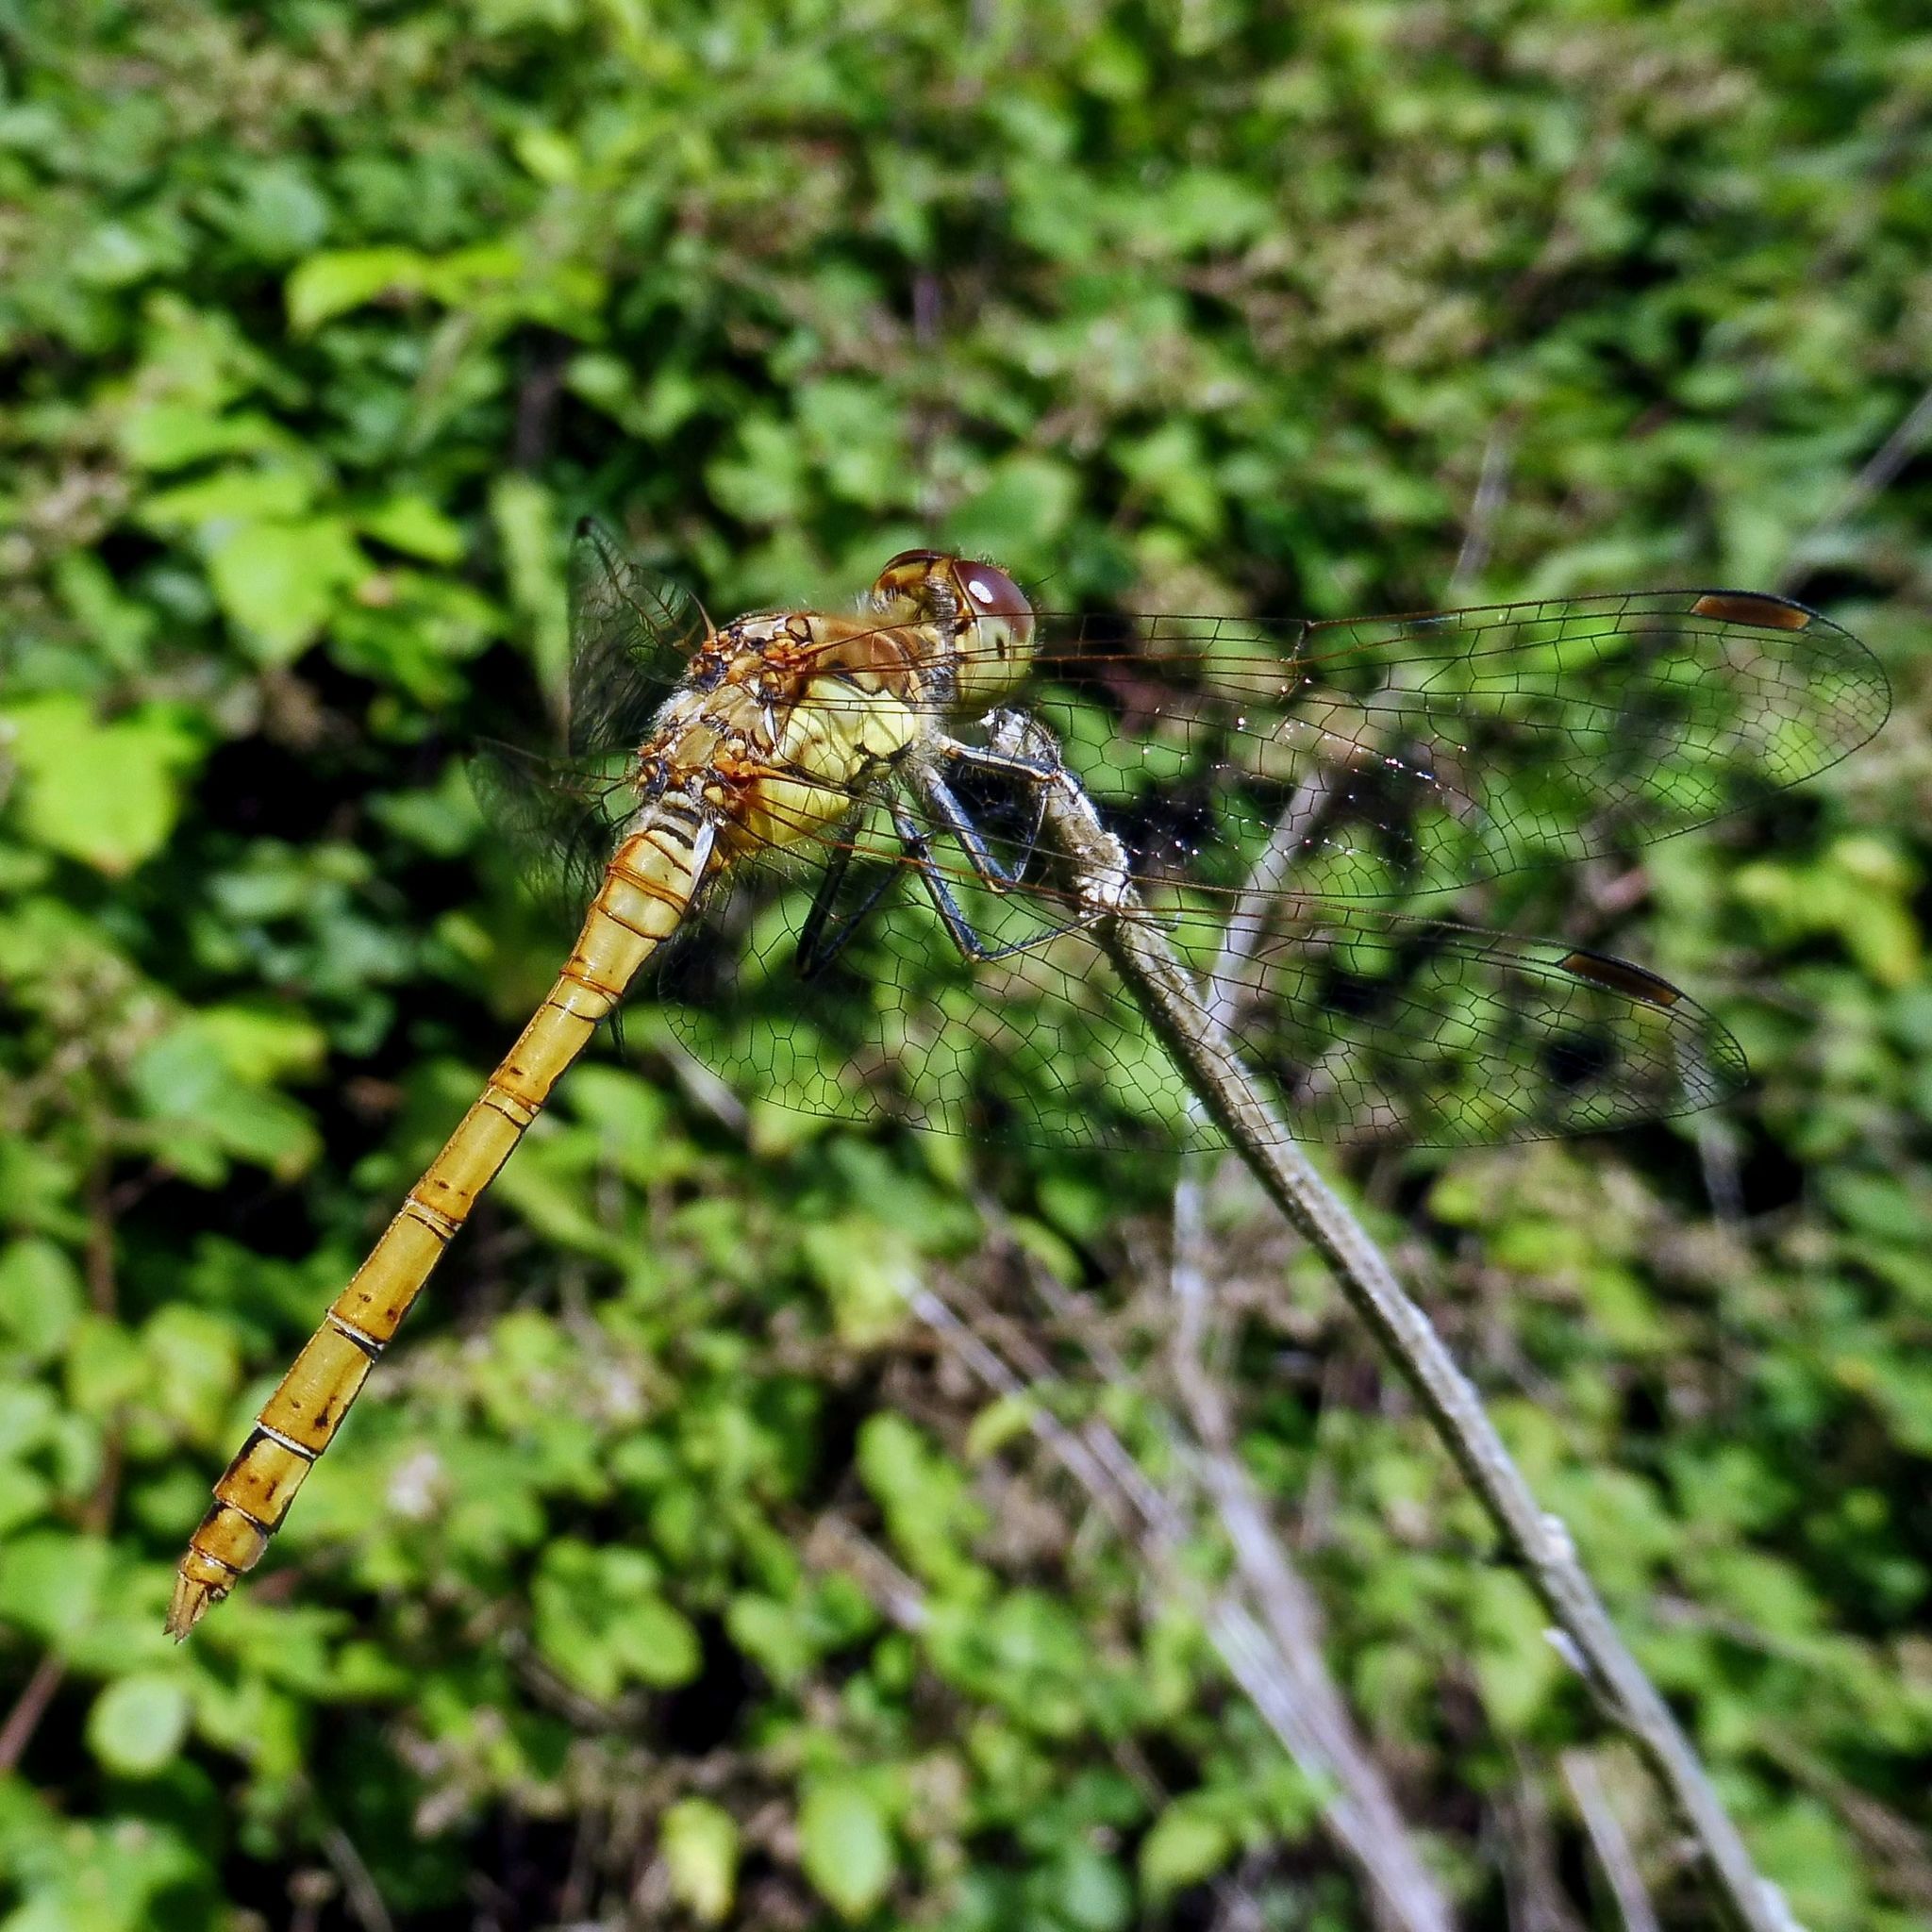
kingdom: Animalia
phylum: Arthropoda
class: Insecta
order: Odonata
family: Libellulidae
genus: Sympetrum
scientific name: Sympetrum striolatum
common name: Common darter
